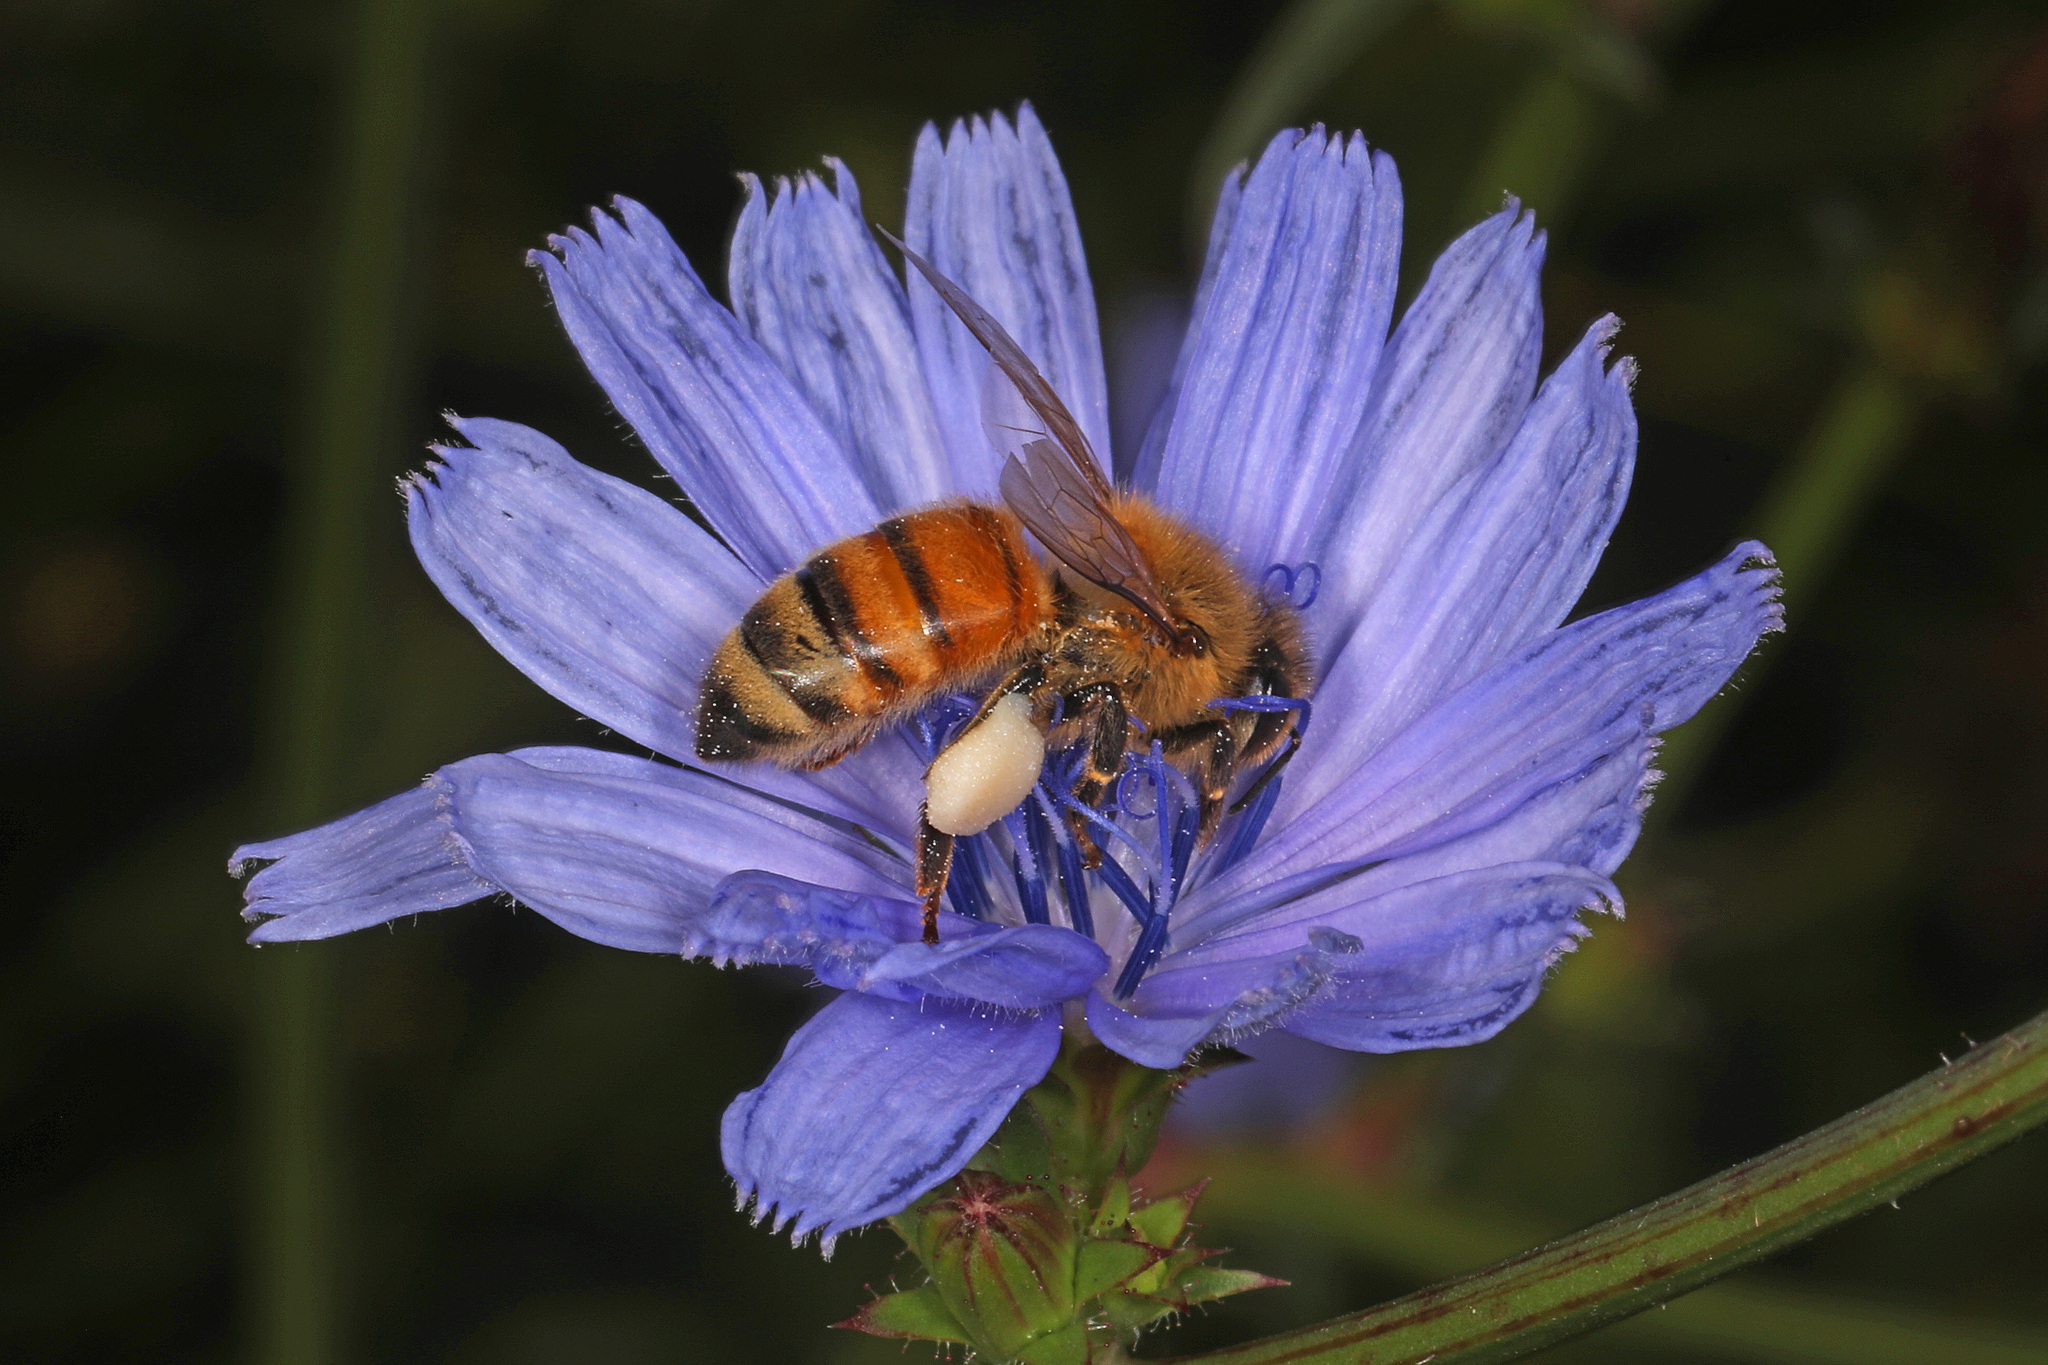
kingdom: Animalia
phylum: Arthropoda
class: Insecta
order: Hymenoptera
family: Apidae
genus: Apis
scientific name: Apis mellifera
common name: Honey bee
